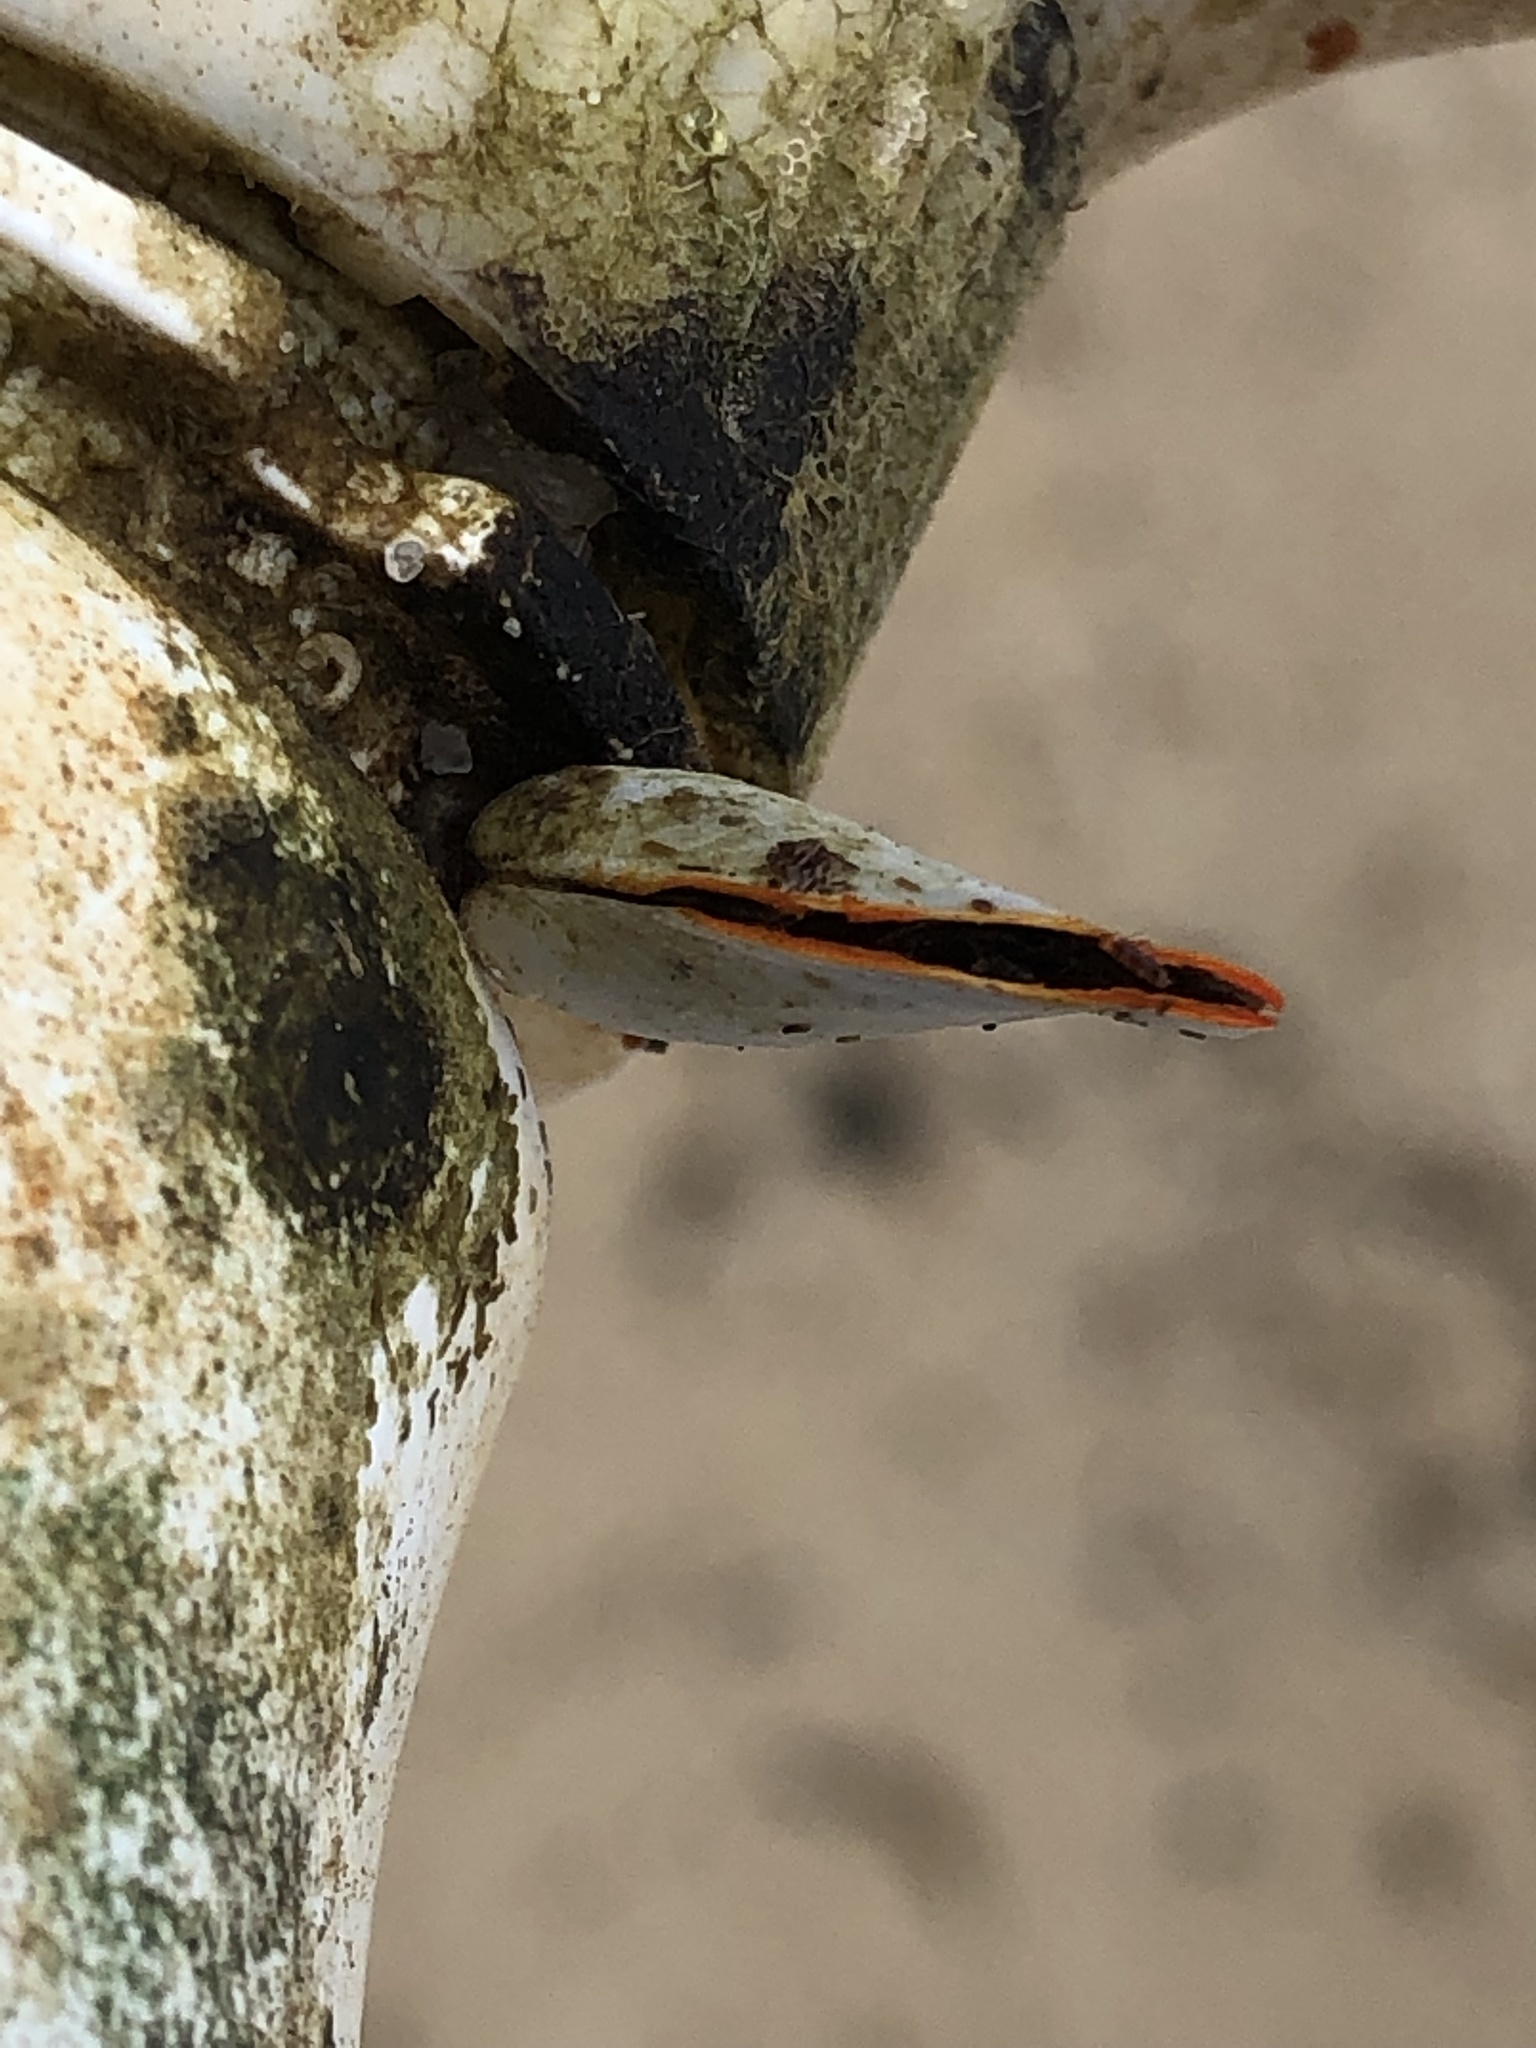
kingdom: Animalia
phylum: Arthropoda
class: Maxillopoda
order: Pedunculata
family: Lepadidae
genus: Lepas
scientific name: Lepas anserifera
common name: Goose barnacle
